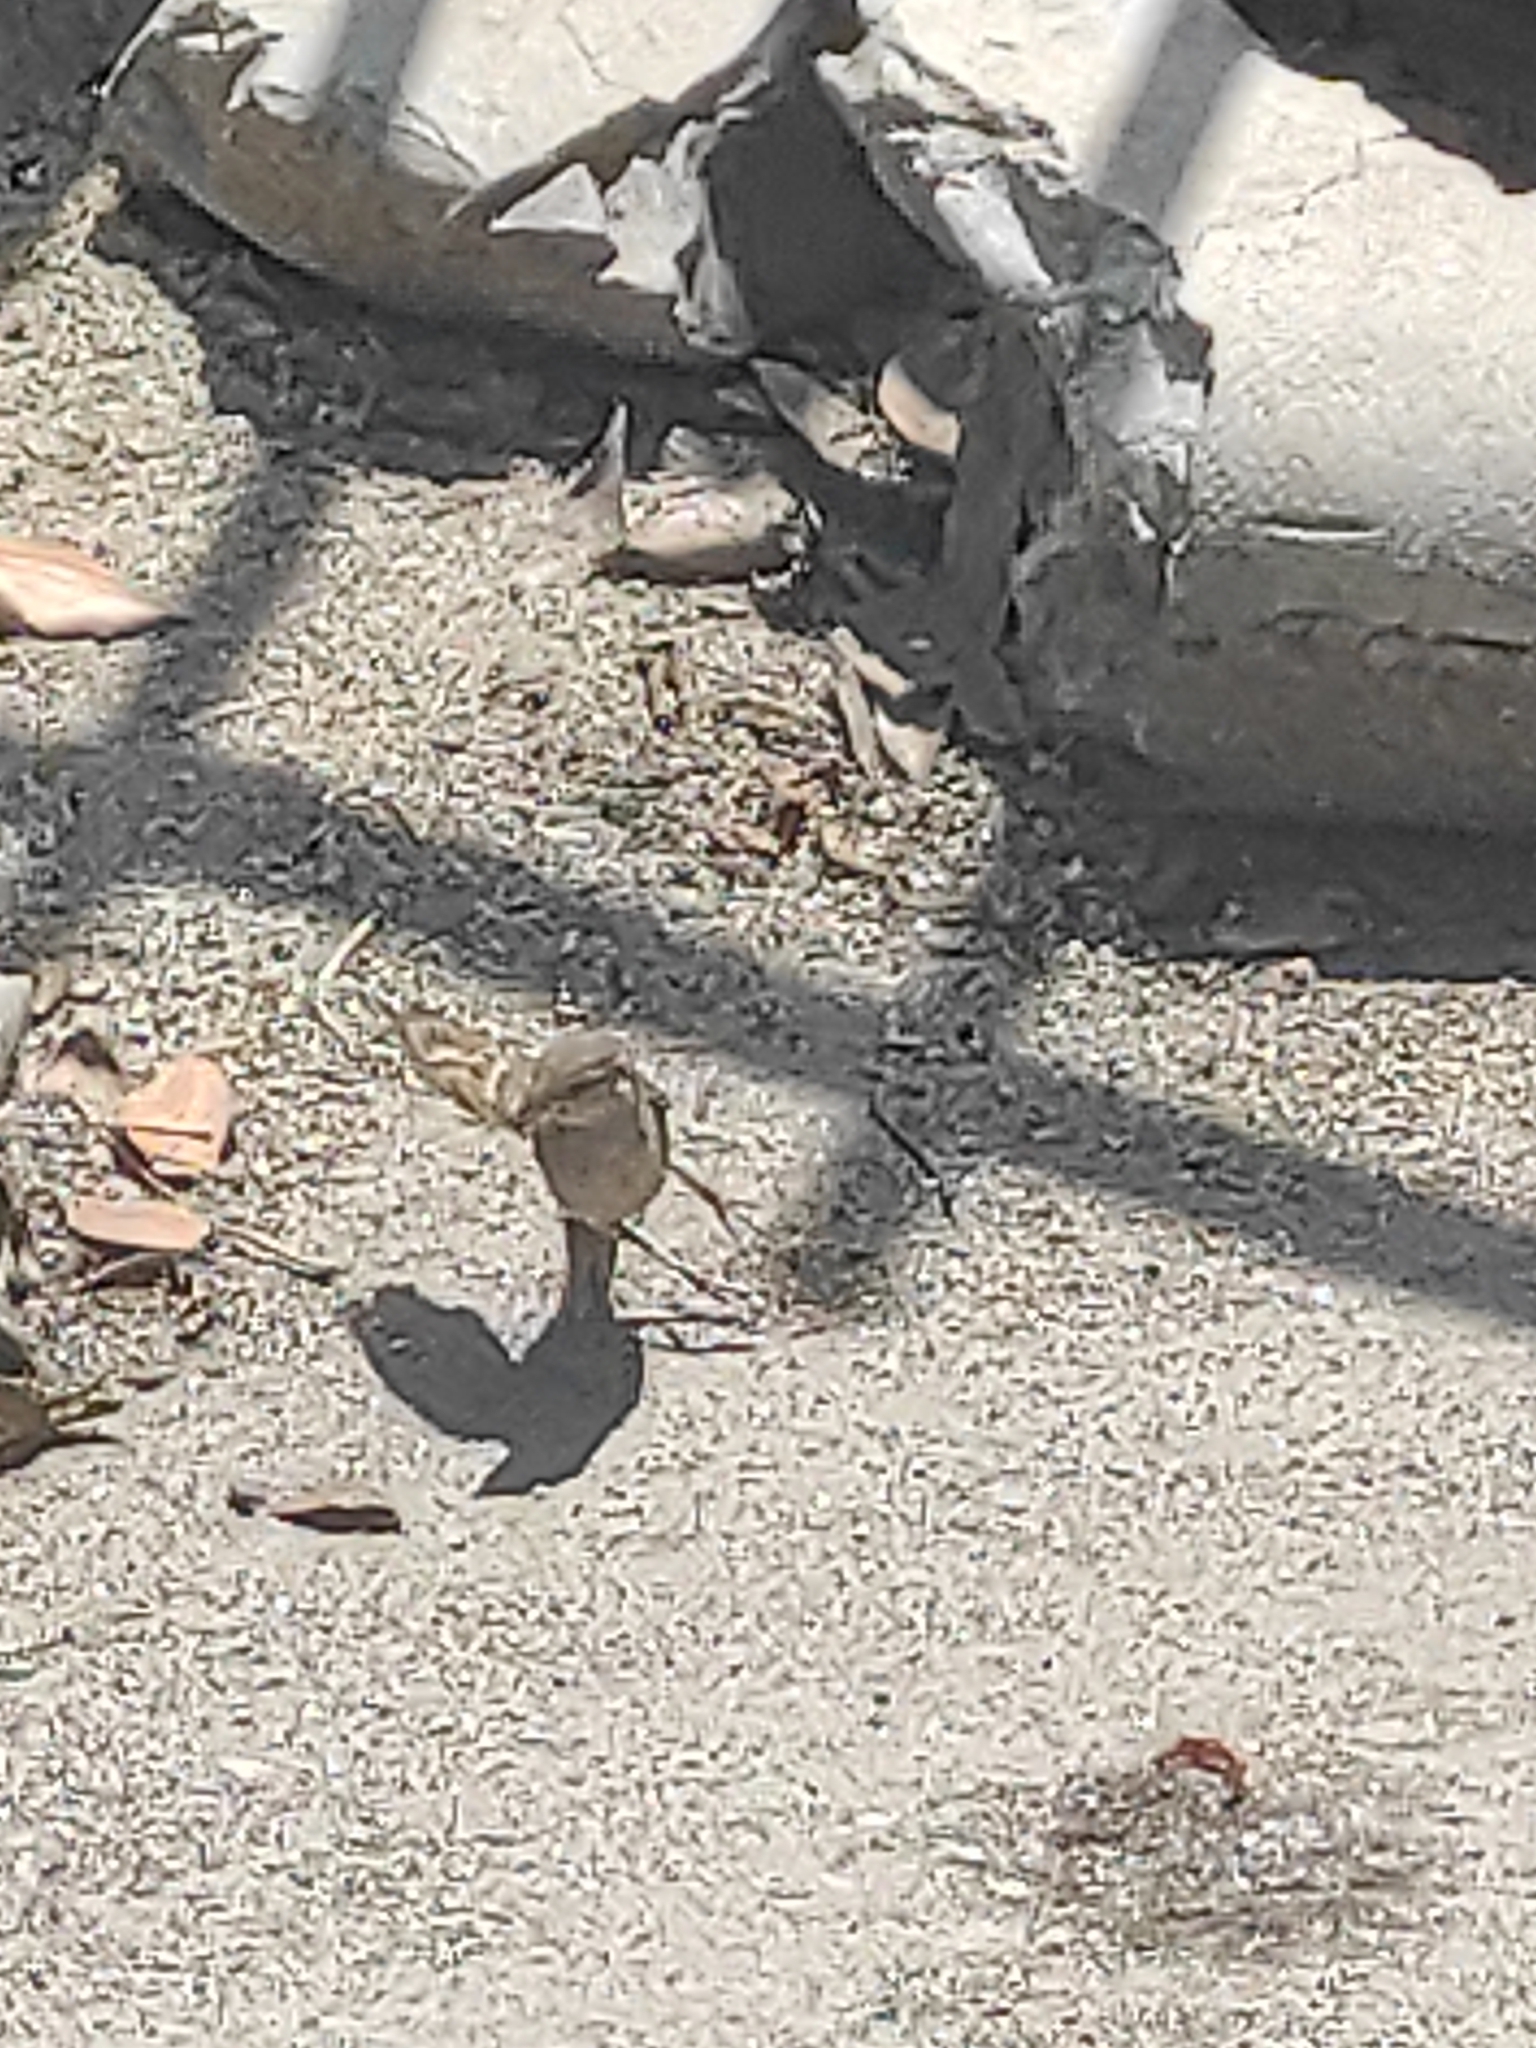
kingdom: Animalia
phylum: Chordata
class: Aves
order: Passeriformes
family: Passeridae
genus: Passer
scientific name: Passer domesticus
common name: House sparrow
